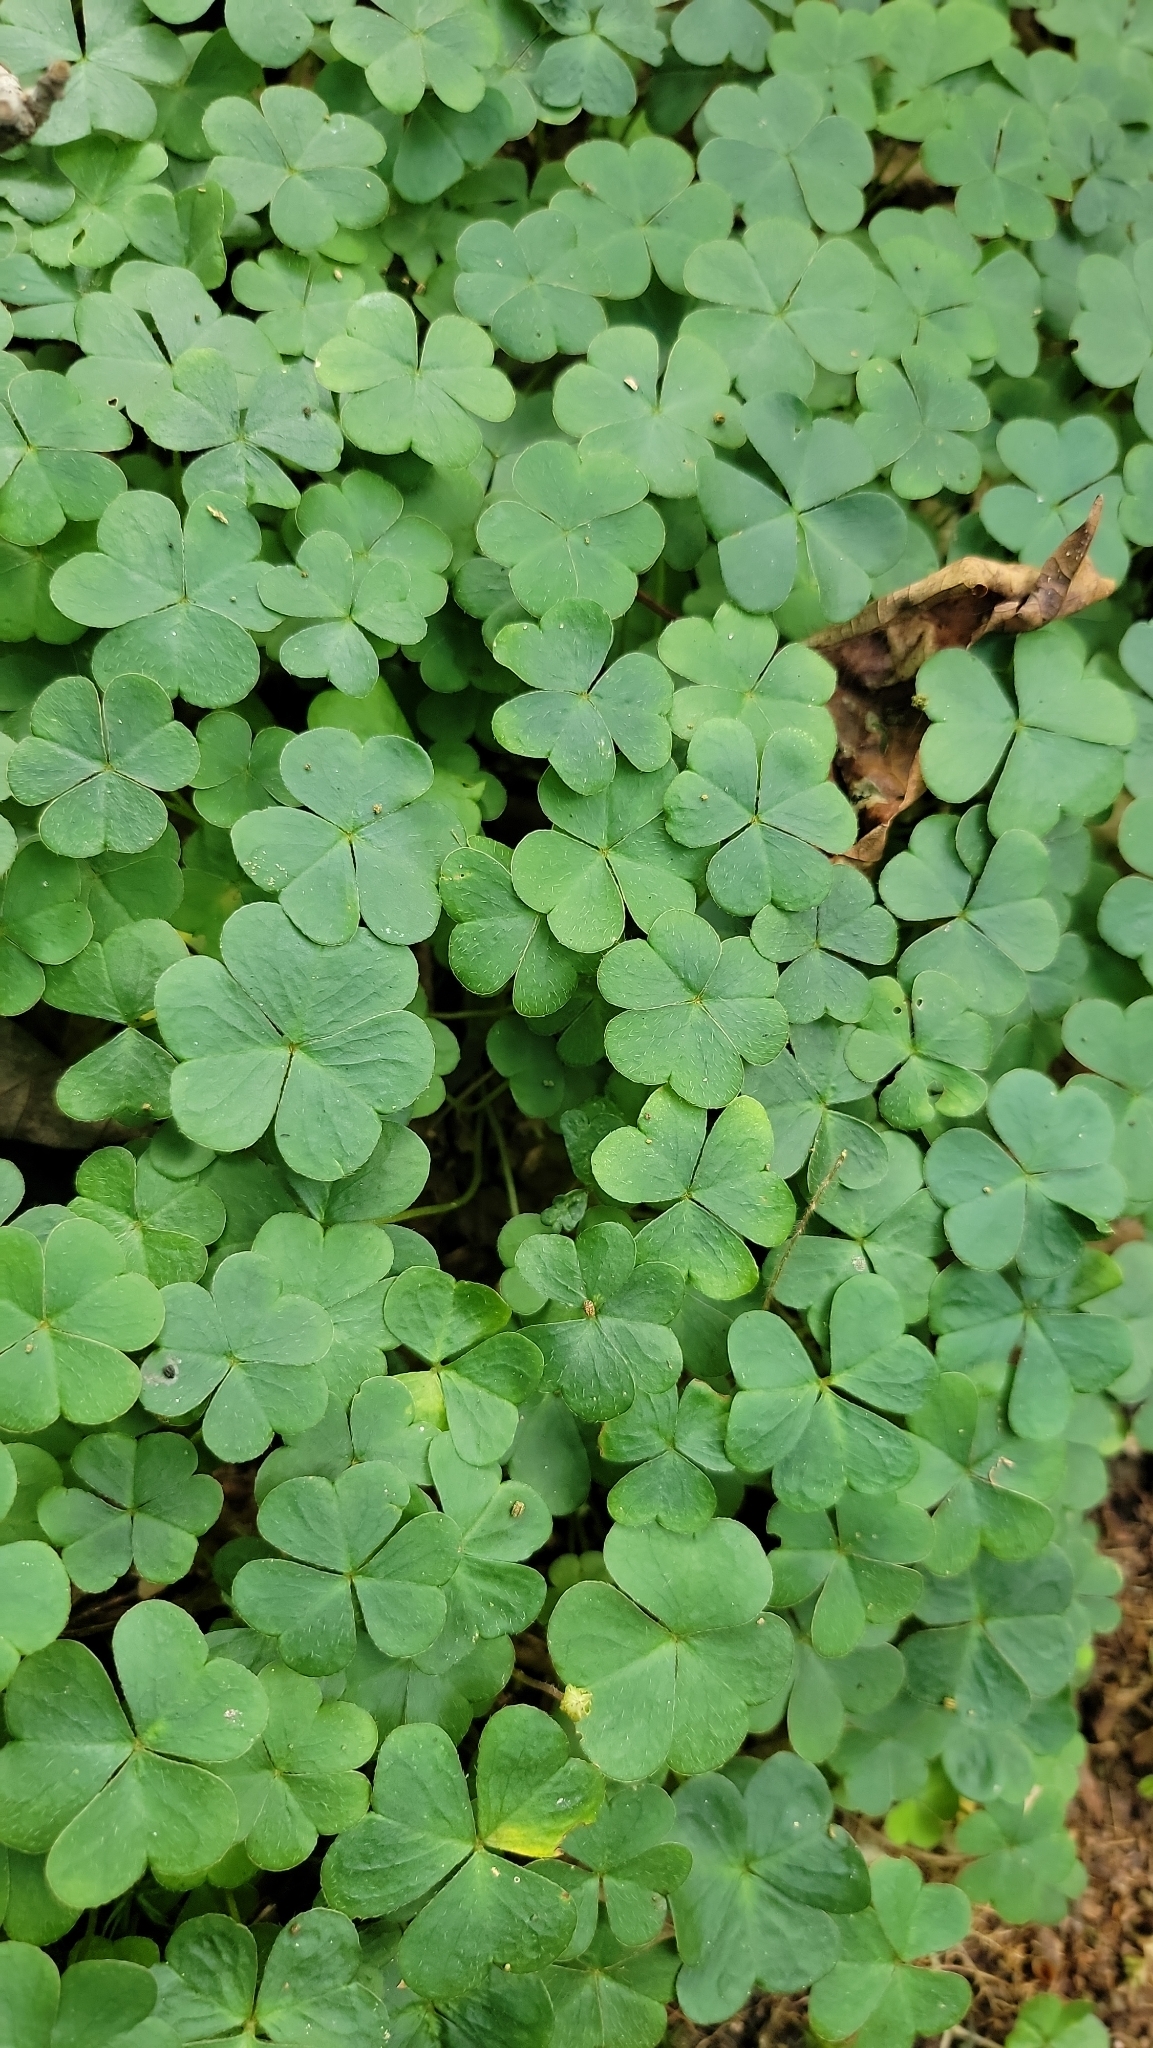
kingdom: Plantae
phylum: Tracheophyta
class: Magnoliopsida
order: Oxalidales
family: Oxalidaceae
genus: Oxalis
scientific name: Oxalis montana
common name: American wood-sorrel
